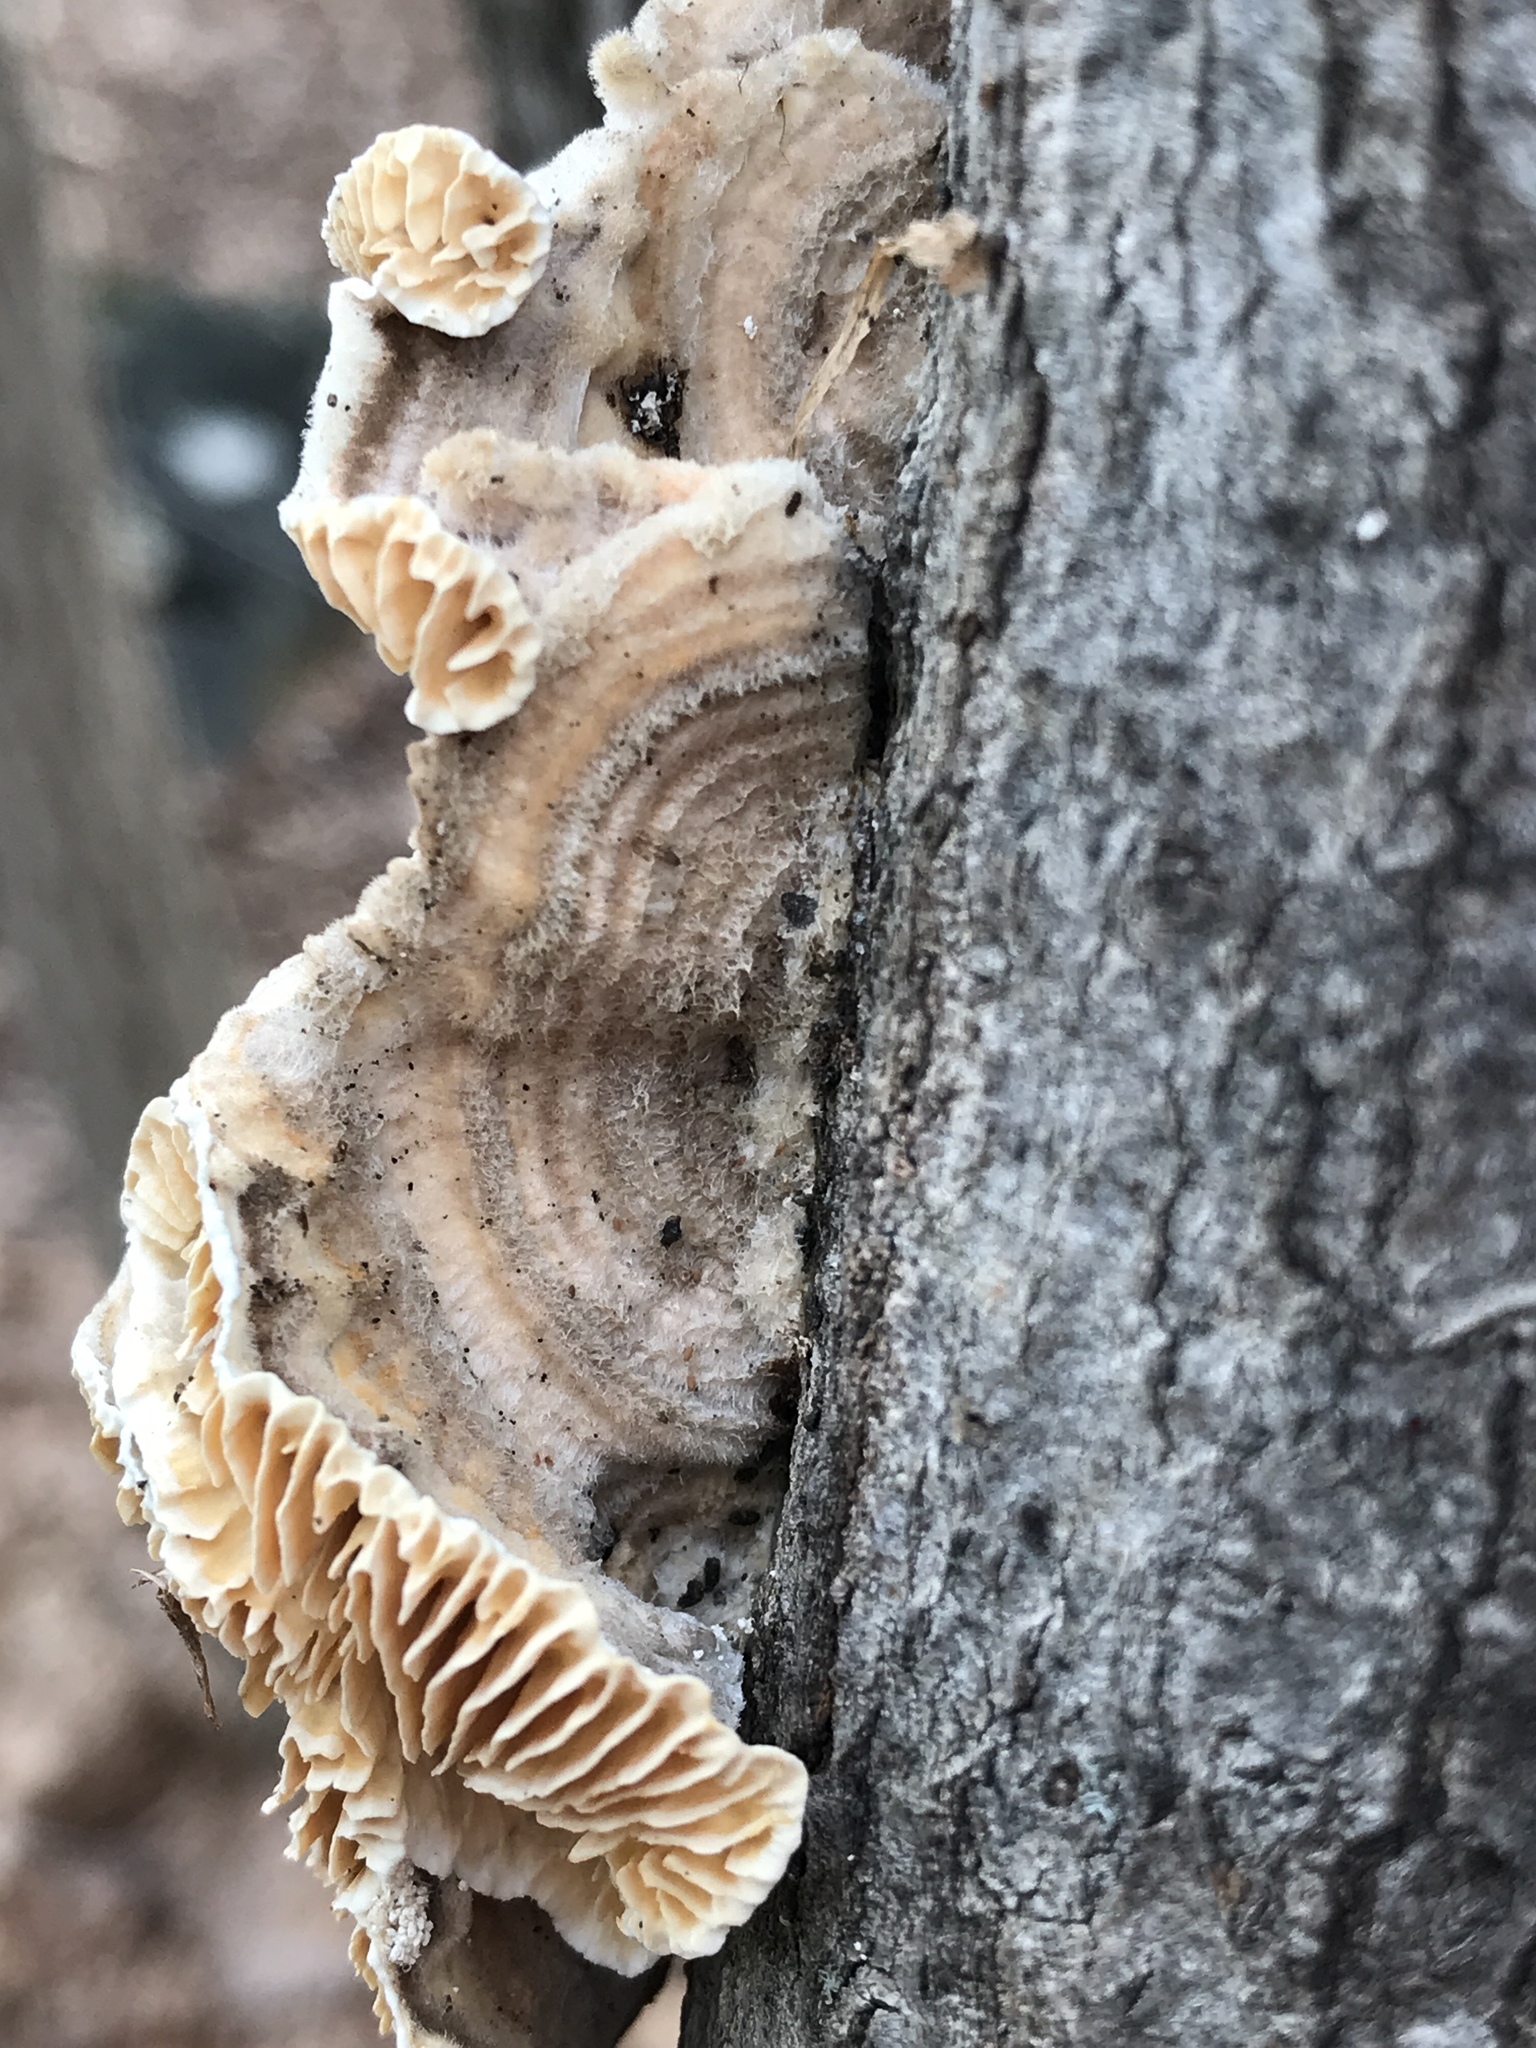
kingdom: Fungi
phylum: Basidiomycota
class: Agaricomycetes
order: Polyporales
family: Polyporaceae
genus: Lenzites
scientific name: Lenzites betulinus
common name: Birch mazegill
